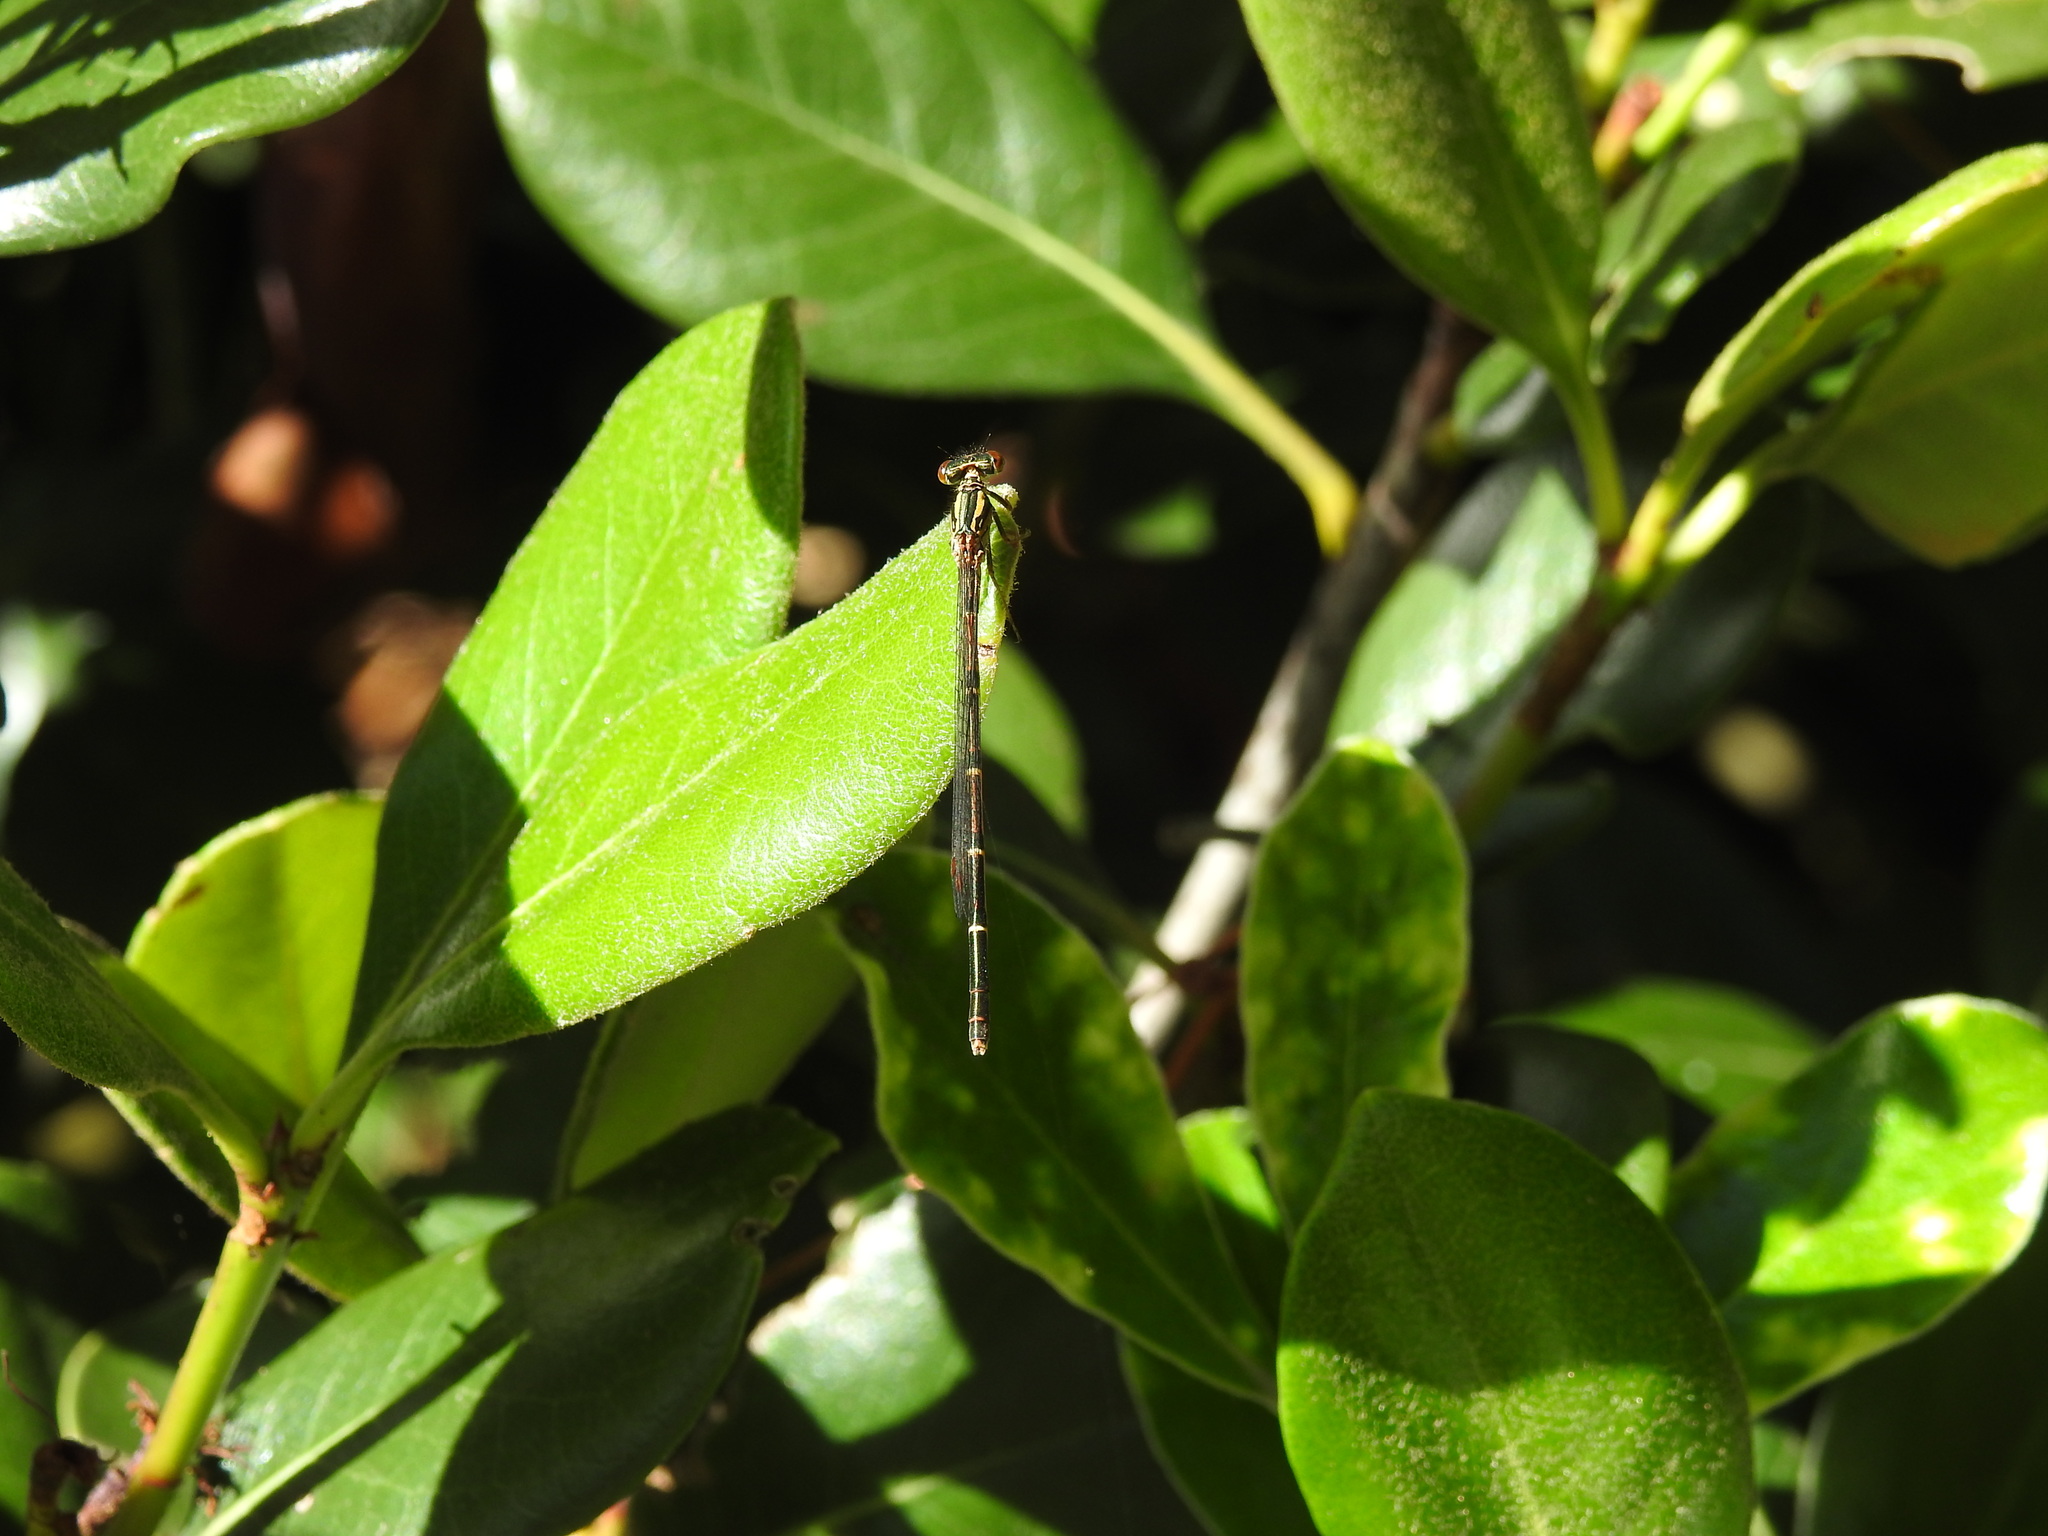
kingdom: Animalia
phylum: Arthropoda
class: Insecta
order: Odonata
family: Coenagrionidae
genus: Xanthocnemis
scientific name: Xanthocnemis zealandica
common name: Common redcoat damselfly
